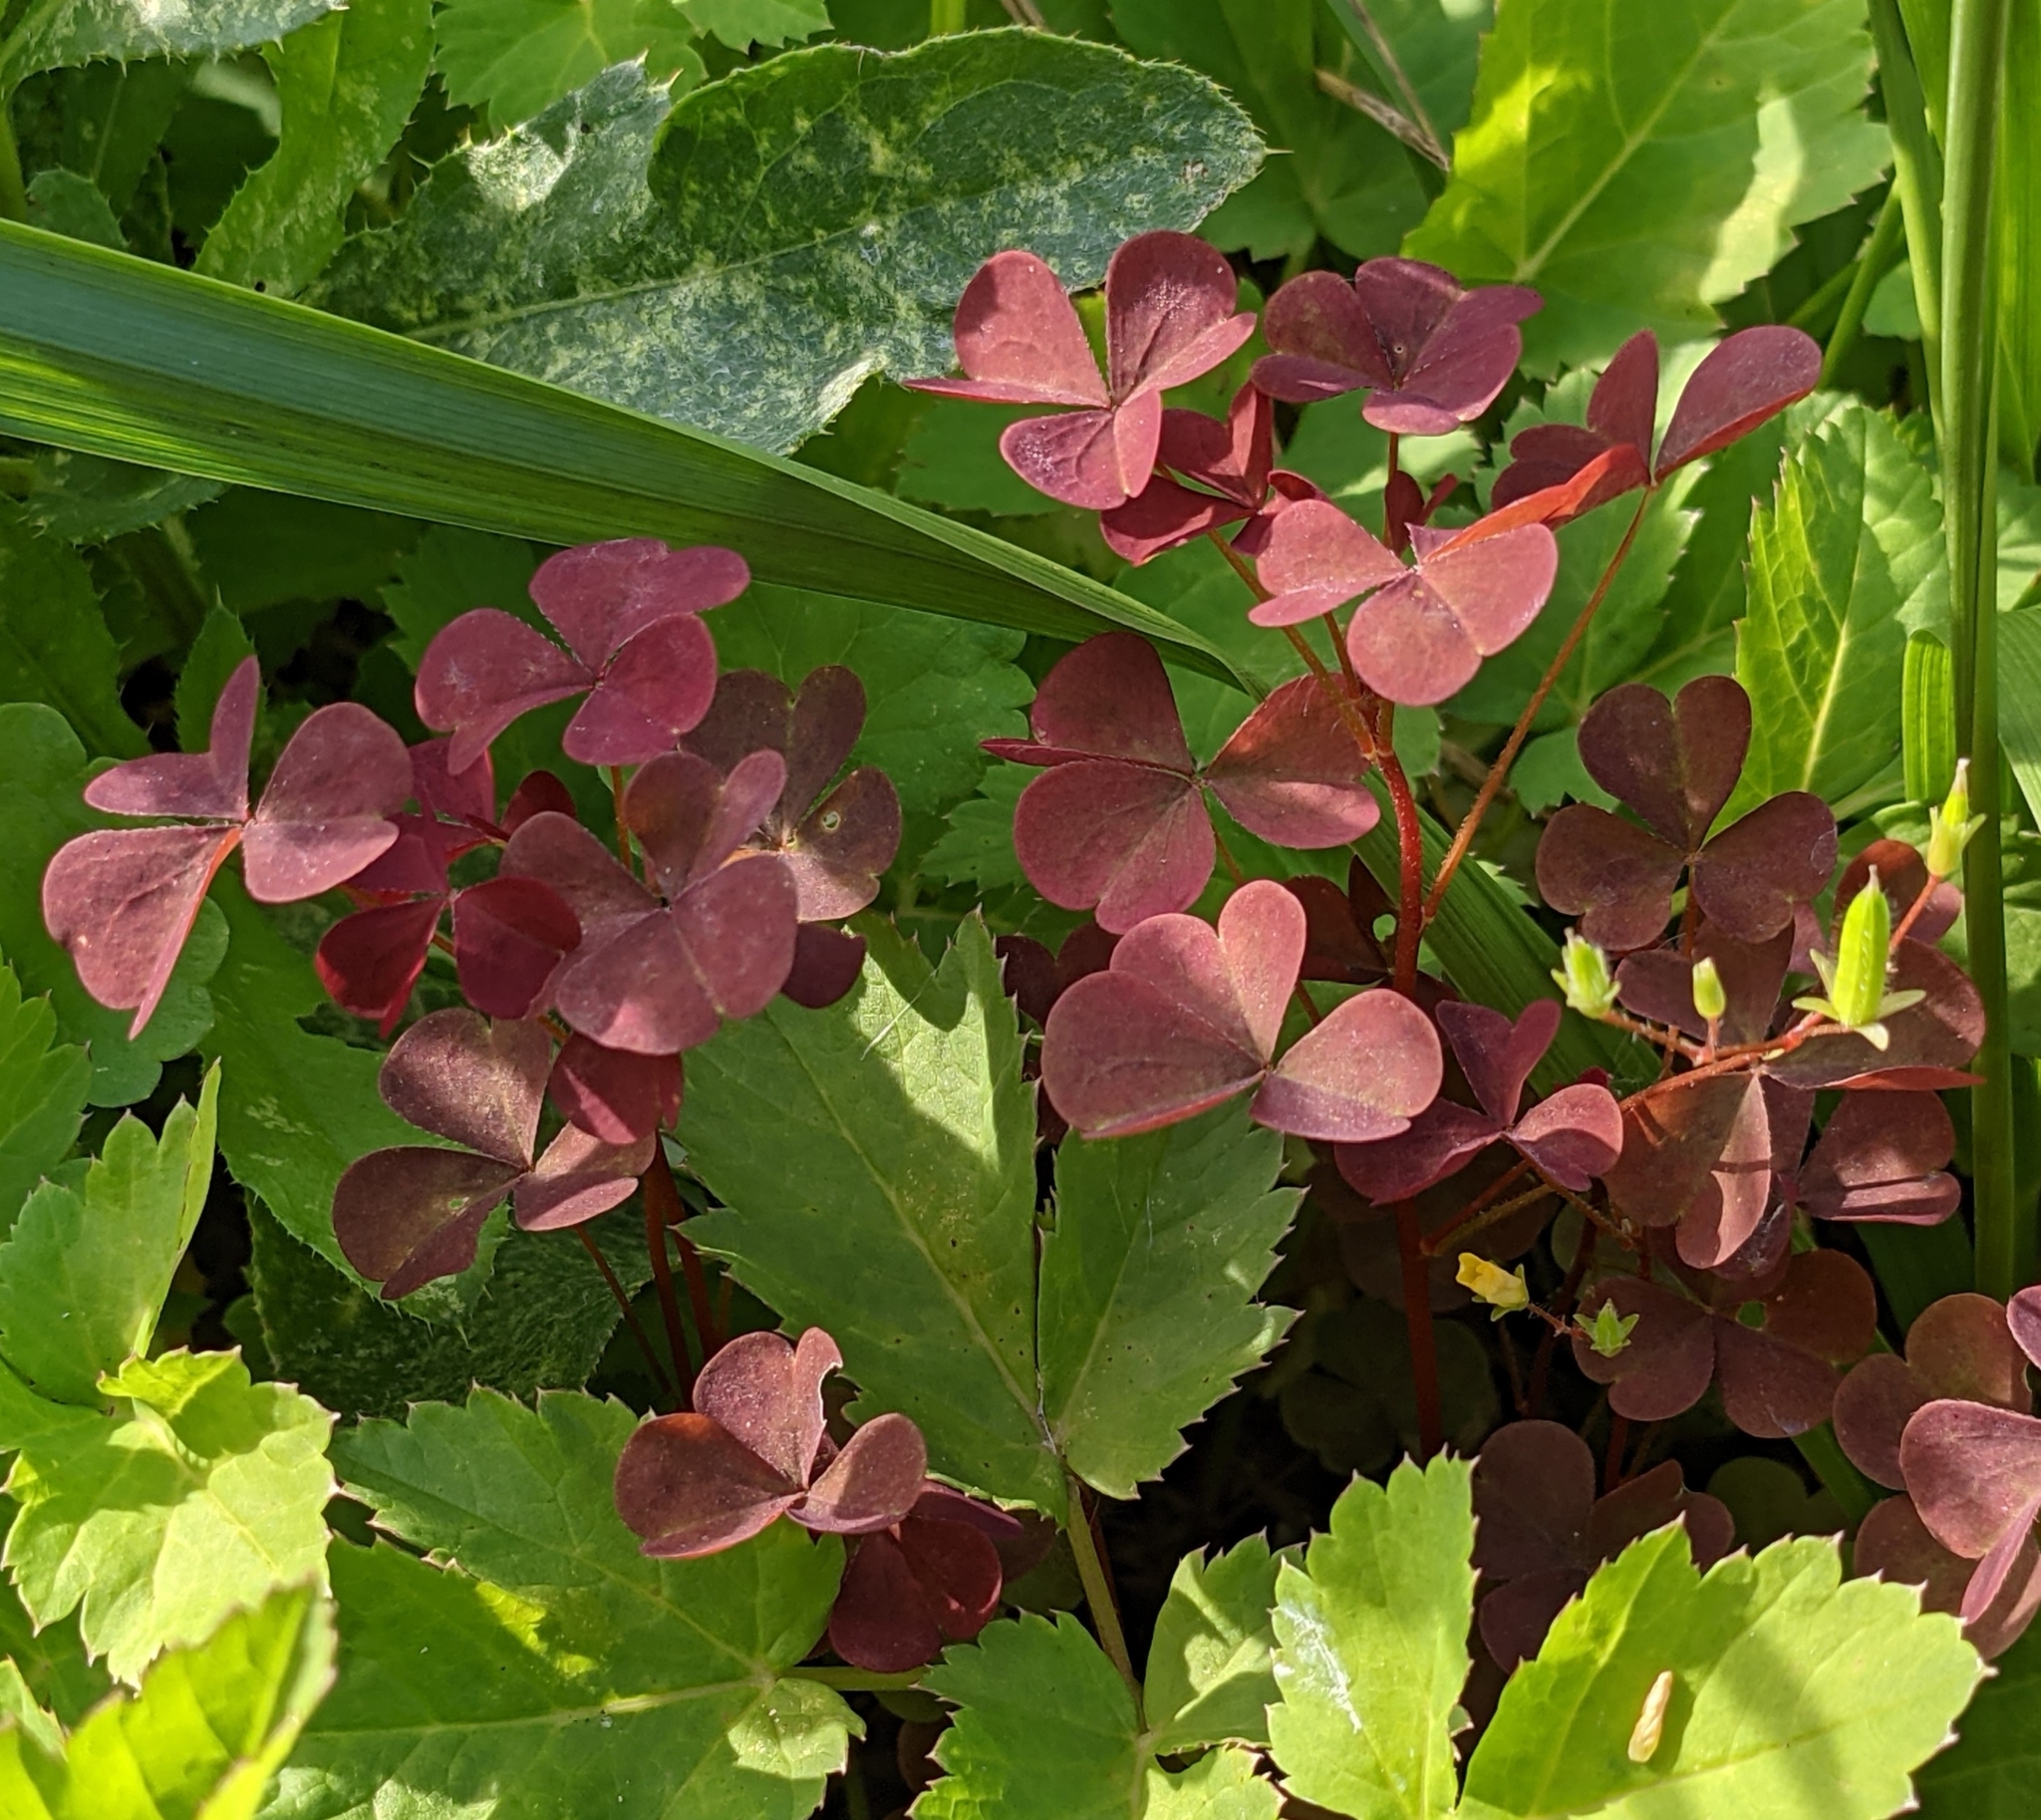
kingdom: Plantae
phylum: Tracheophyta
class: Magnoliopsida
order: Oxalidales
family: Oxalidaceae
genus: Oxalis
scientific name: Oxalis stricta
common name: Upright yellow-sorrel
